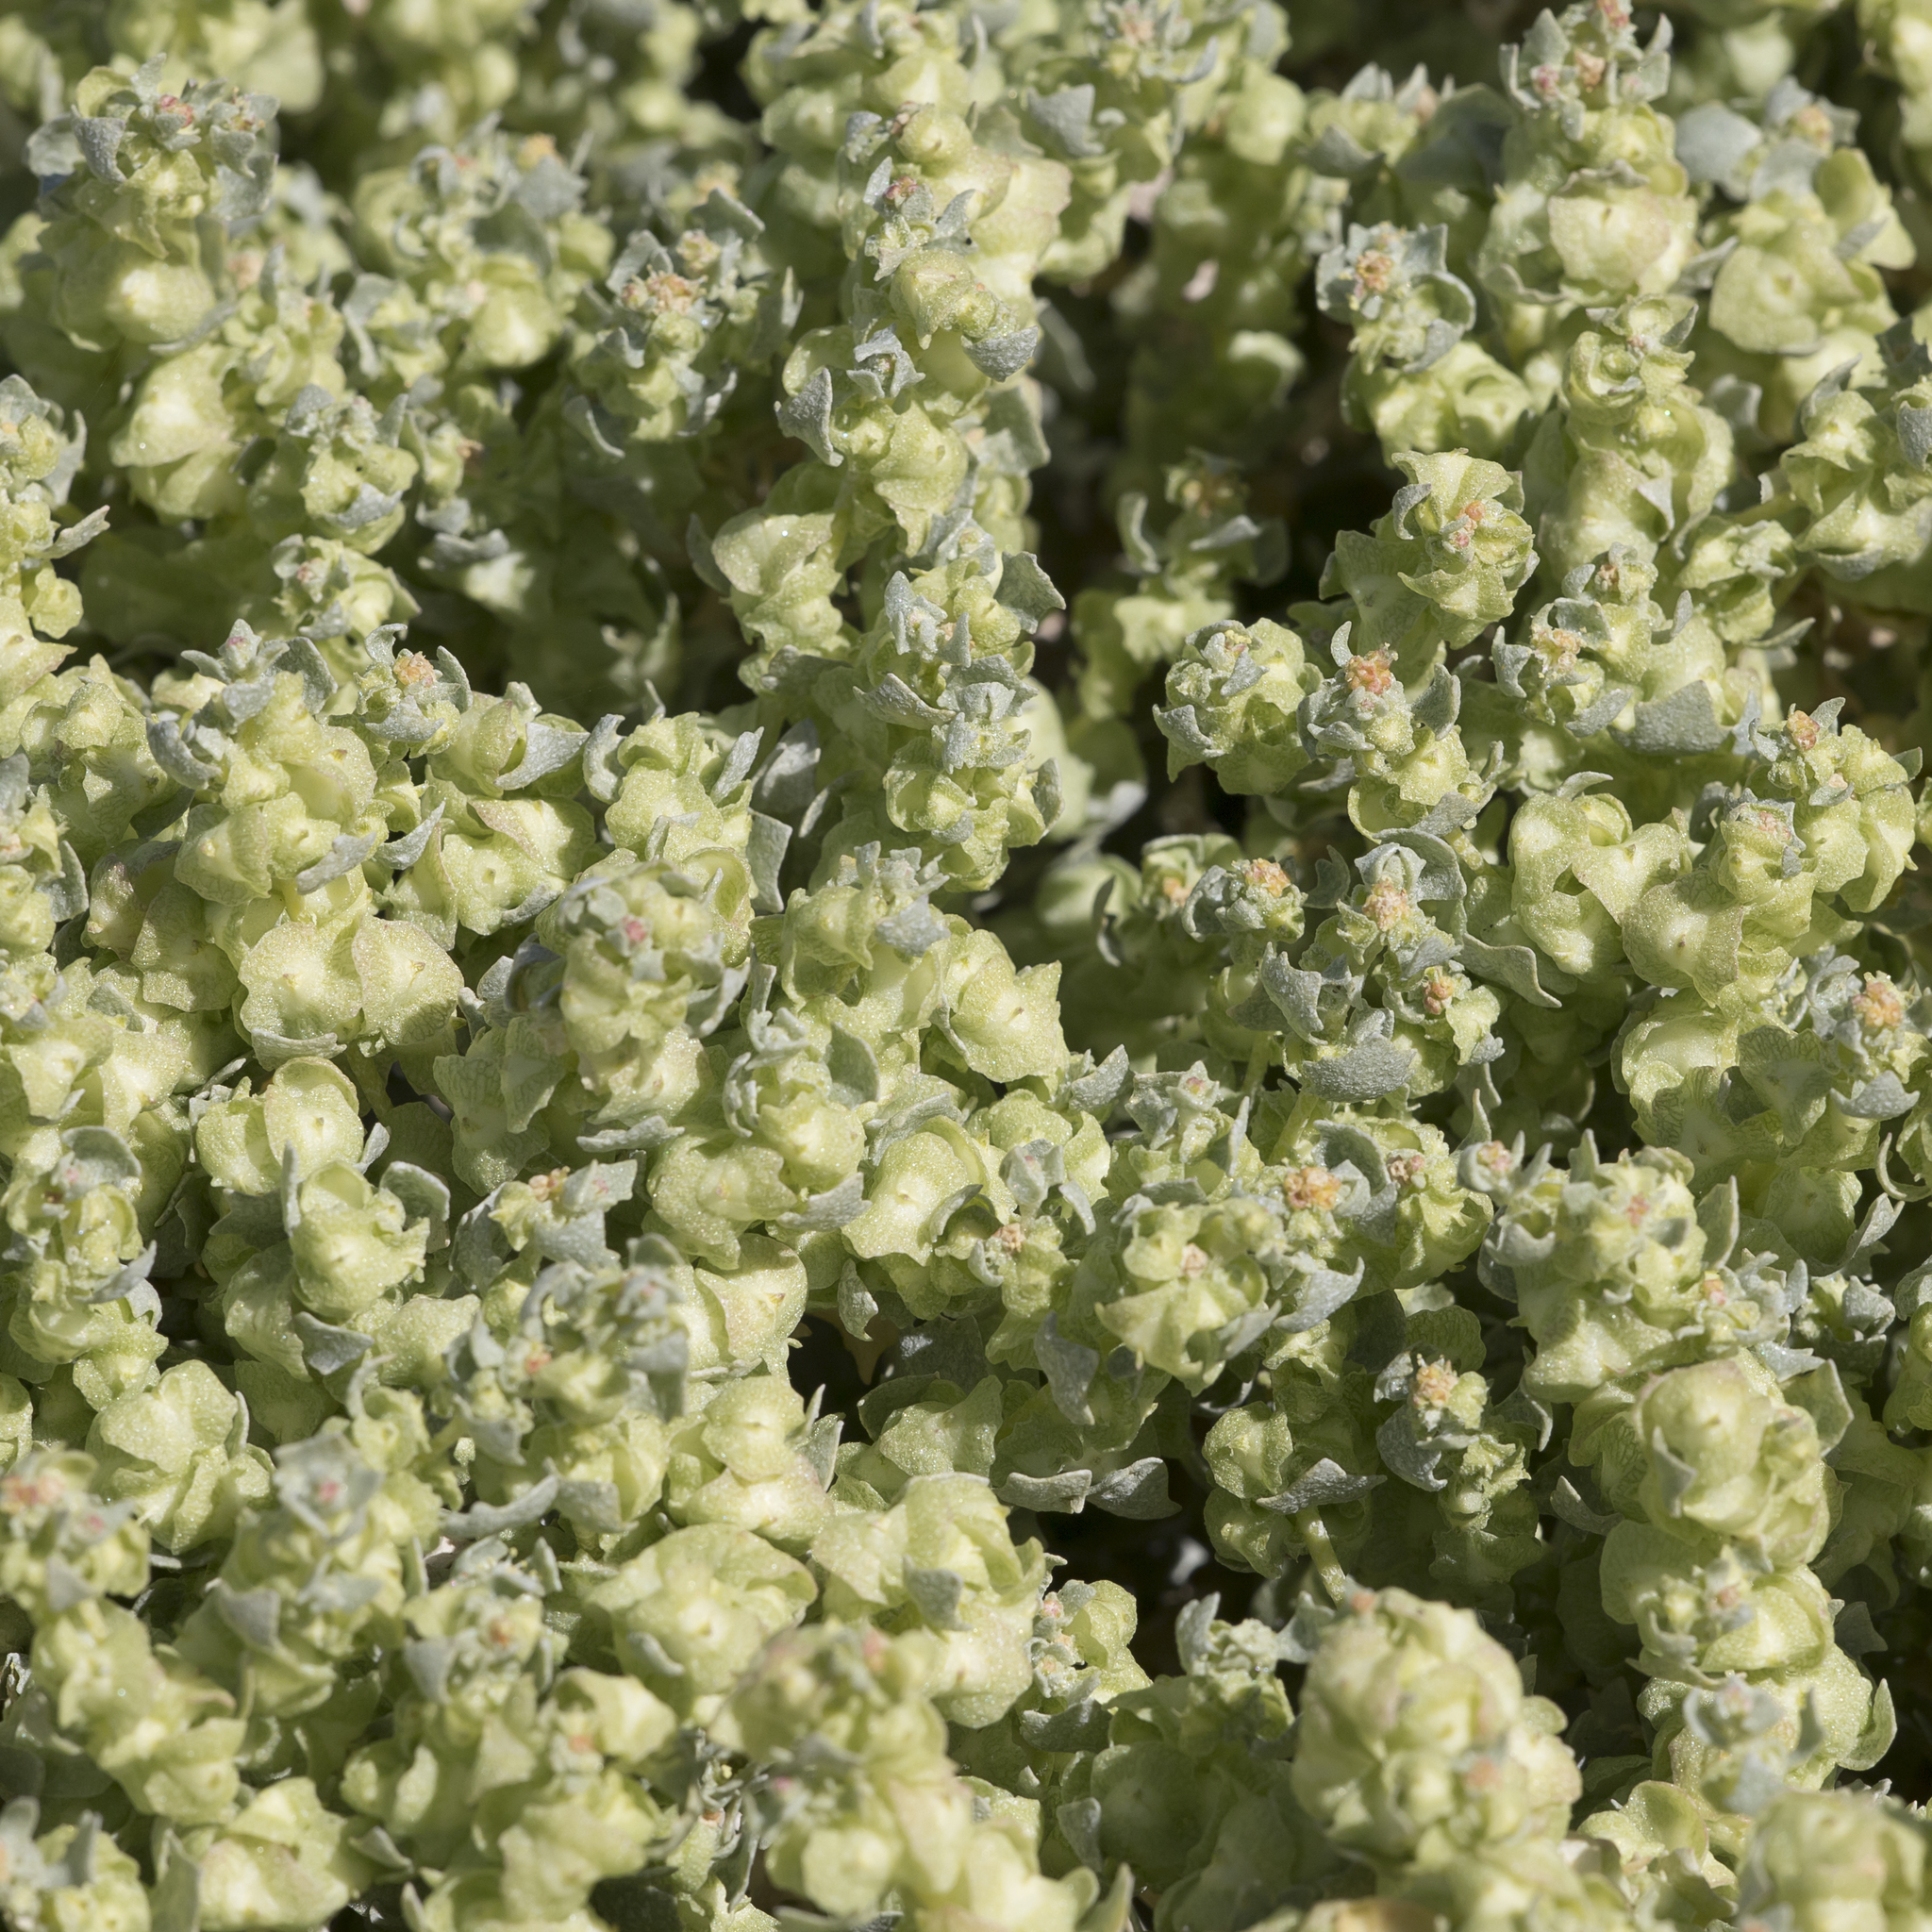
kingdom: Plantae
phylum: Tracheophyta
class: Magnoliopsida
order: Caryophyllales
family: Amaranthaceae
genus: Atriplex
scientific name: Atriplex lindleyi
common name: Lindley's saltbush
